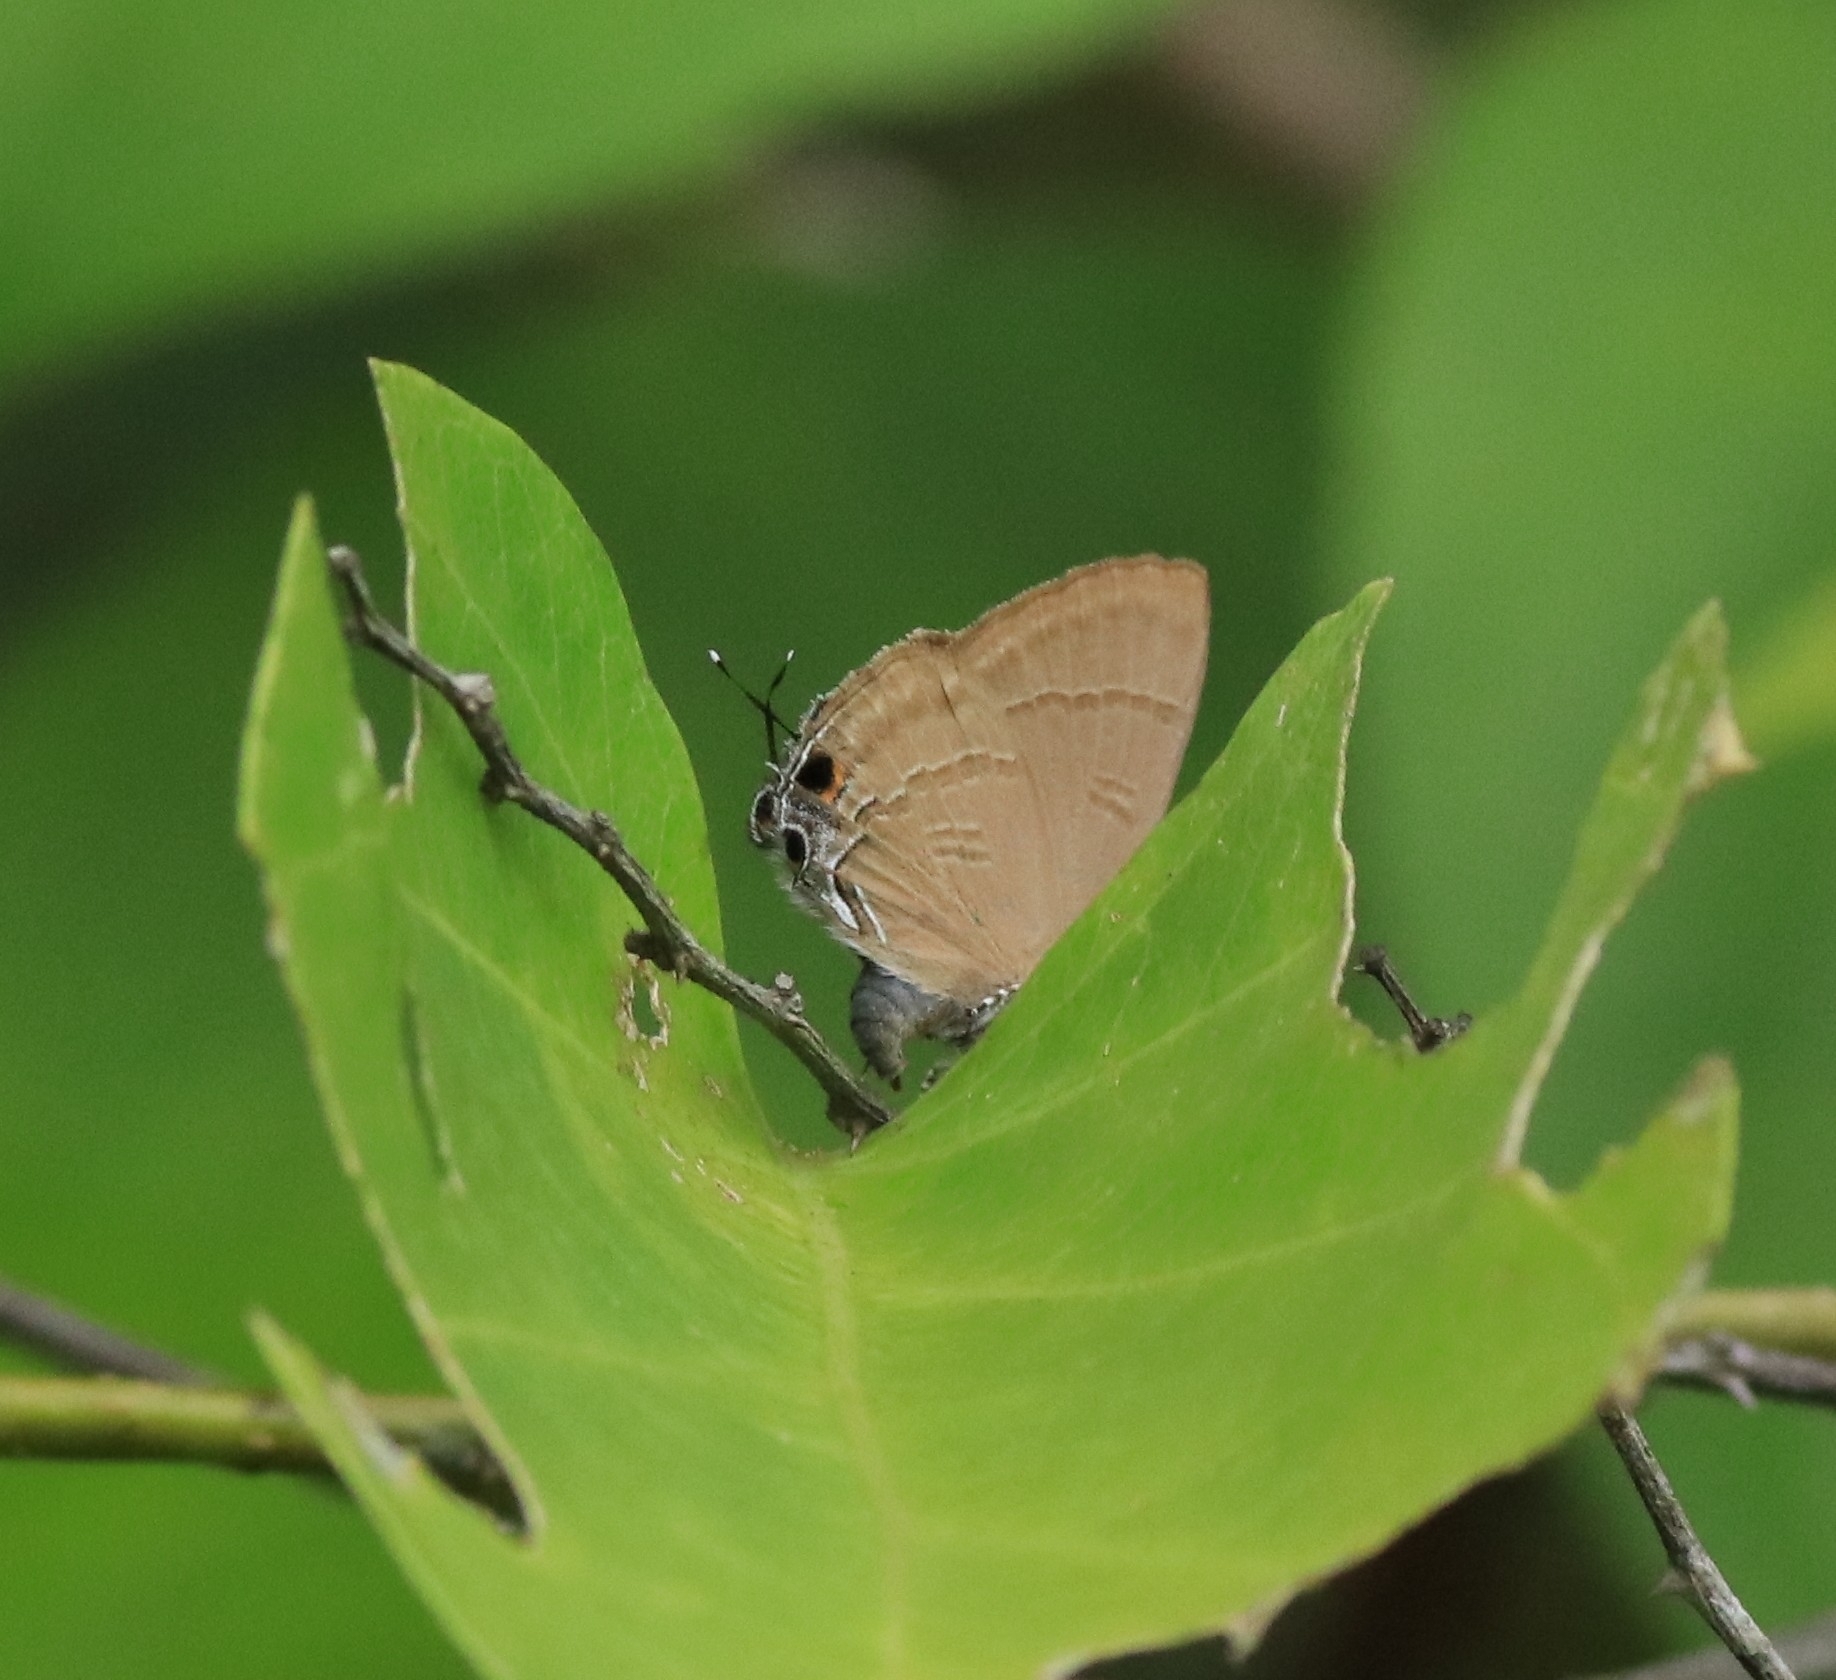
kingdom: Animalia
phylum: Arthropoda
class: Insecta
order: Lepidoptera
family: Lycaenidae
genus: Rapala
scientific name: Rapala manea
